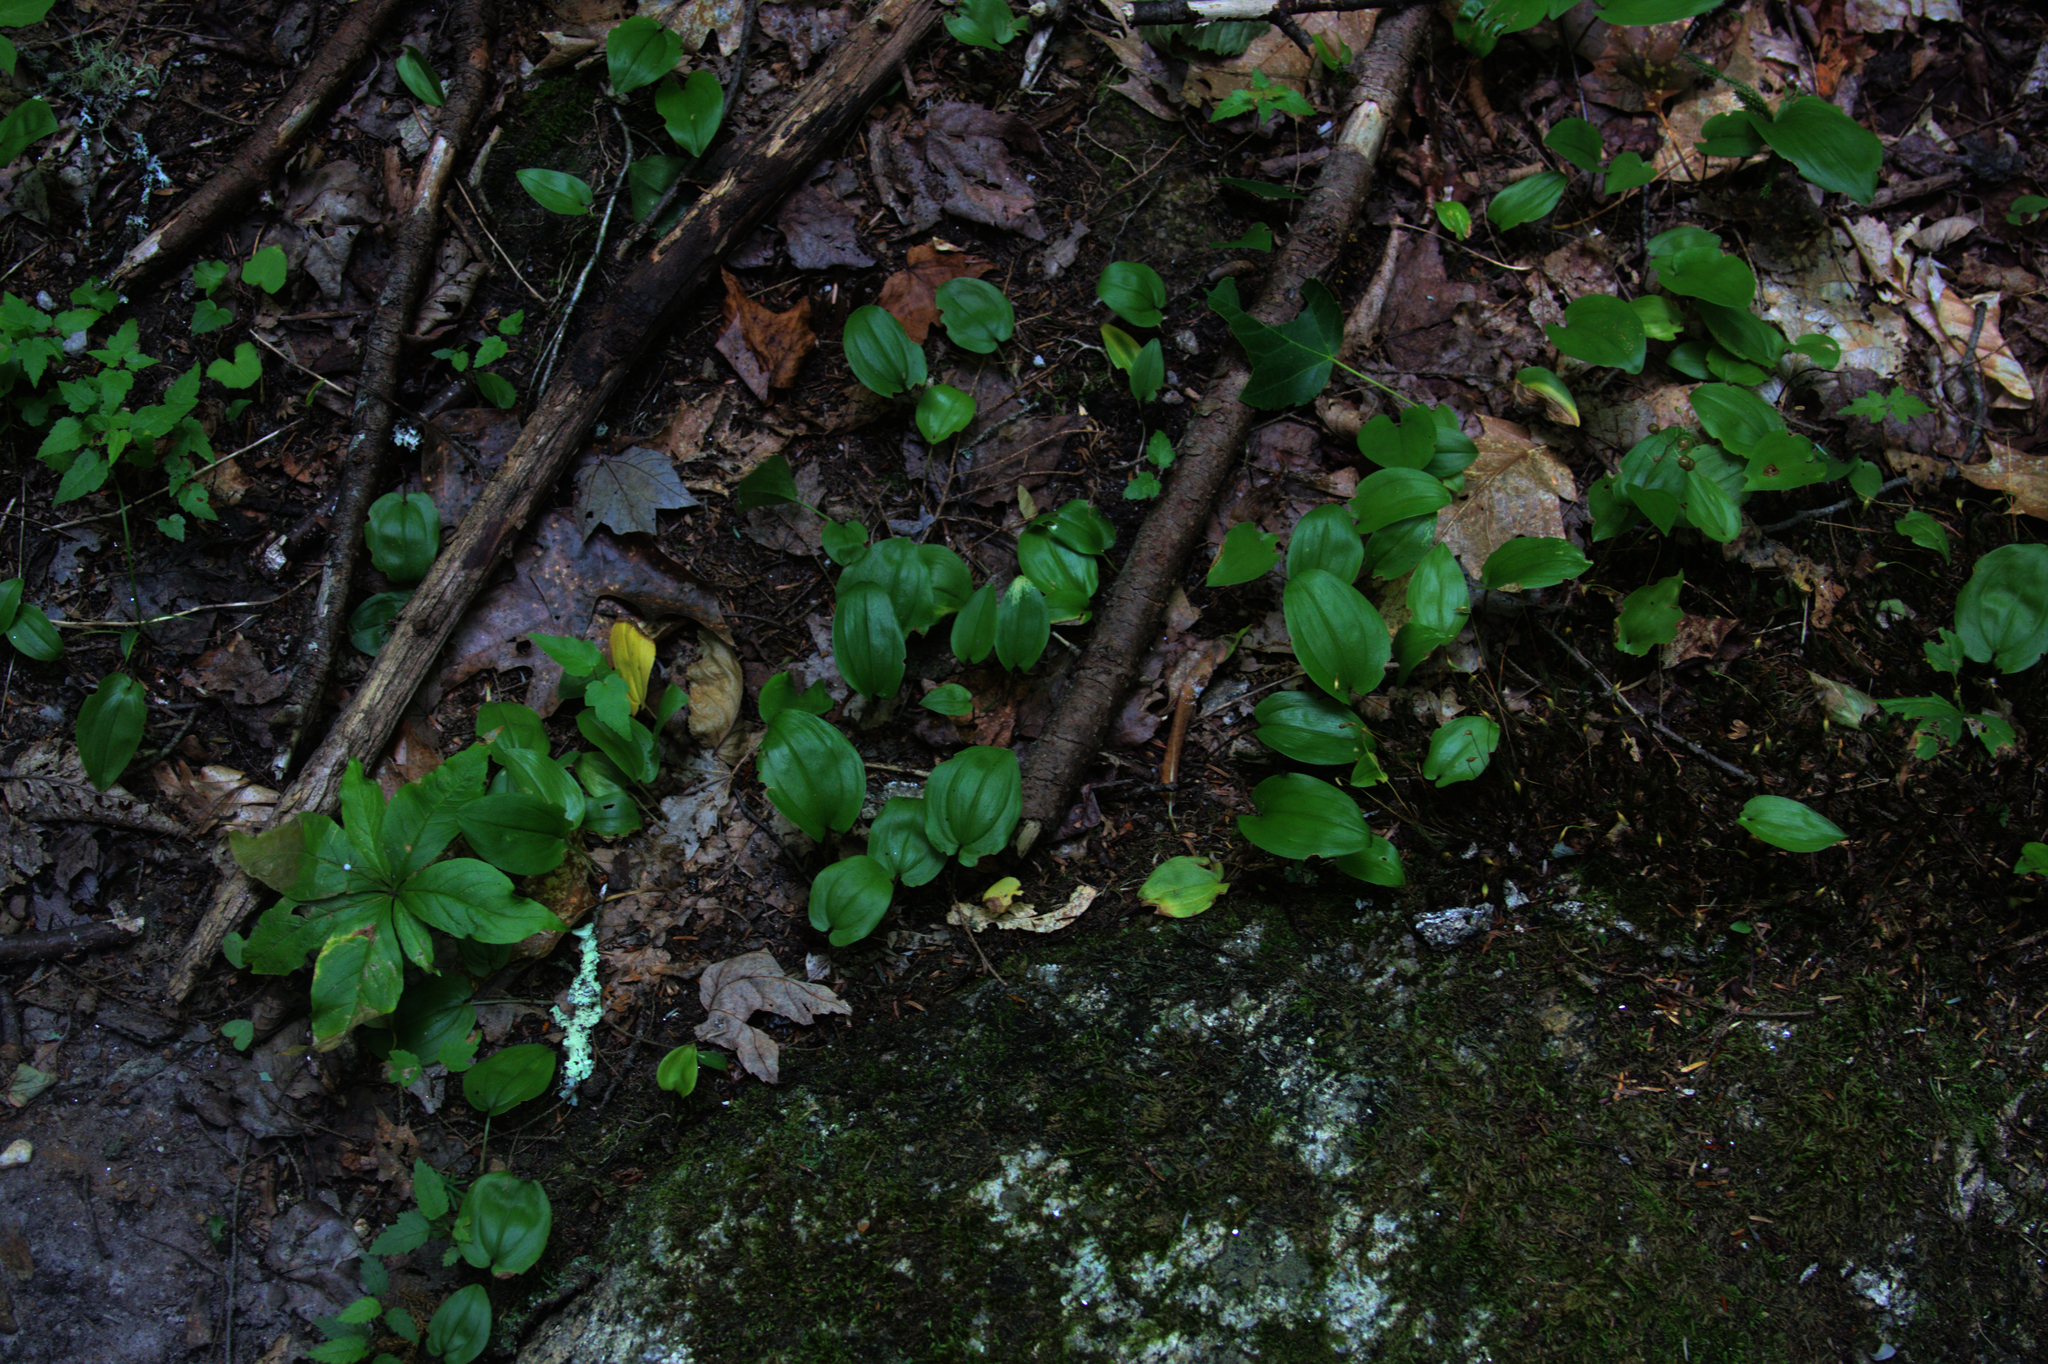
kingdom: Plantae
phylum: Tracheophyta
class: Liliopsida
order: Asparagales
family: Asparagaceae
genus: Maianthemum
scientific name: Maianthemum canadense
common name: False lily-of-the-valley
